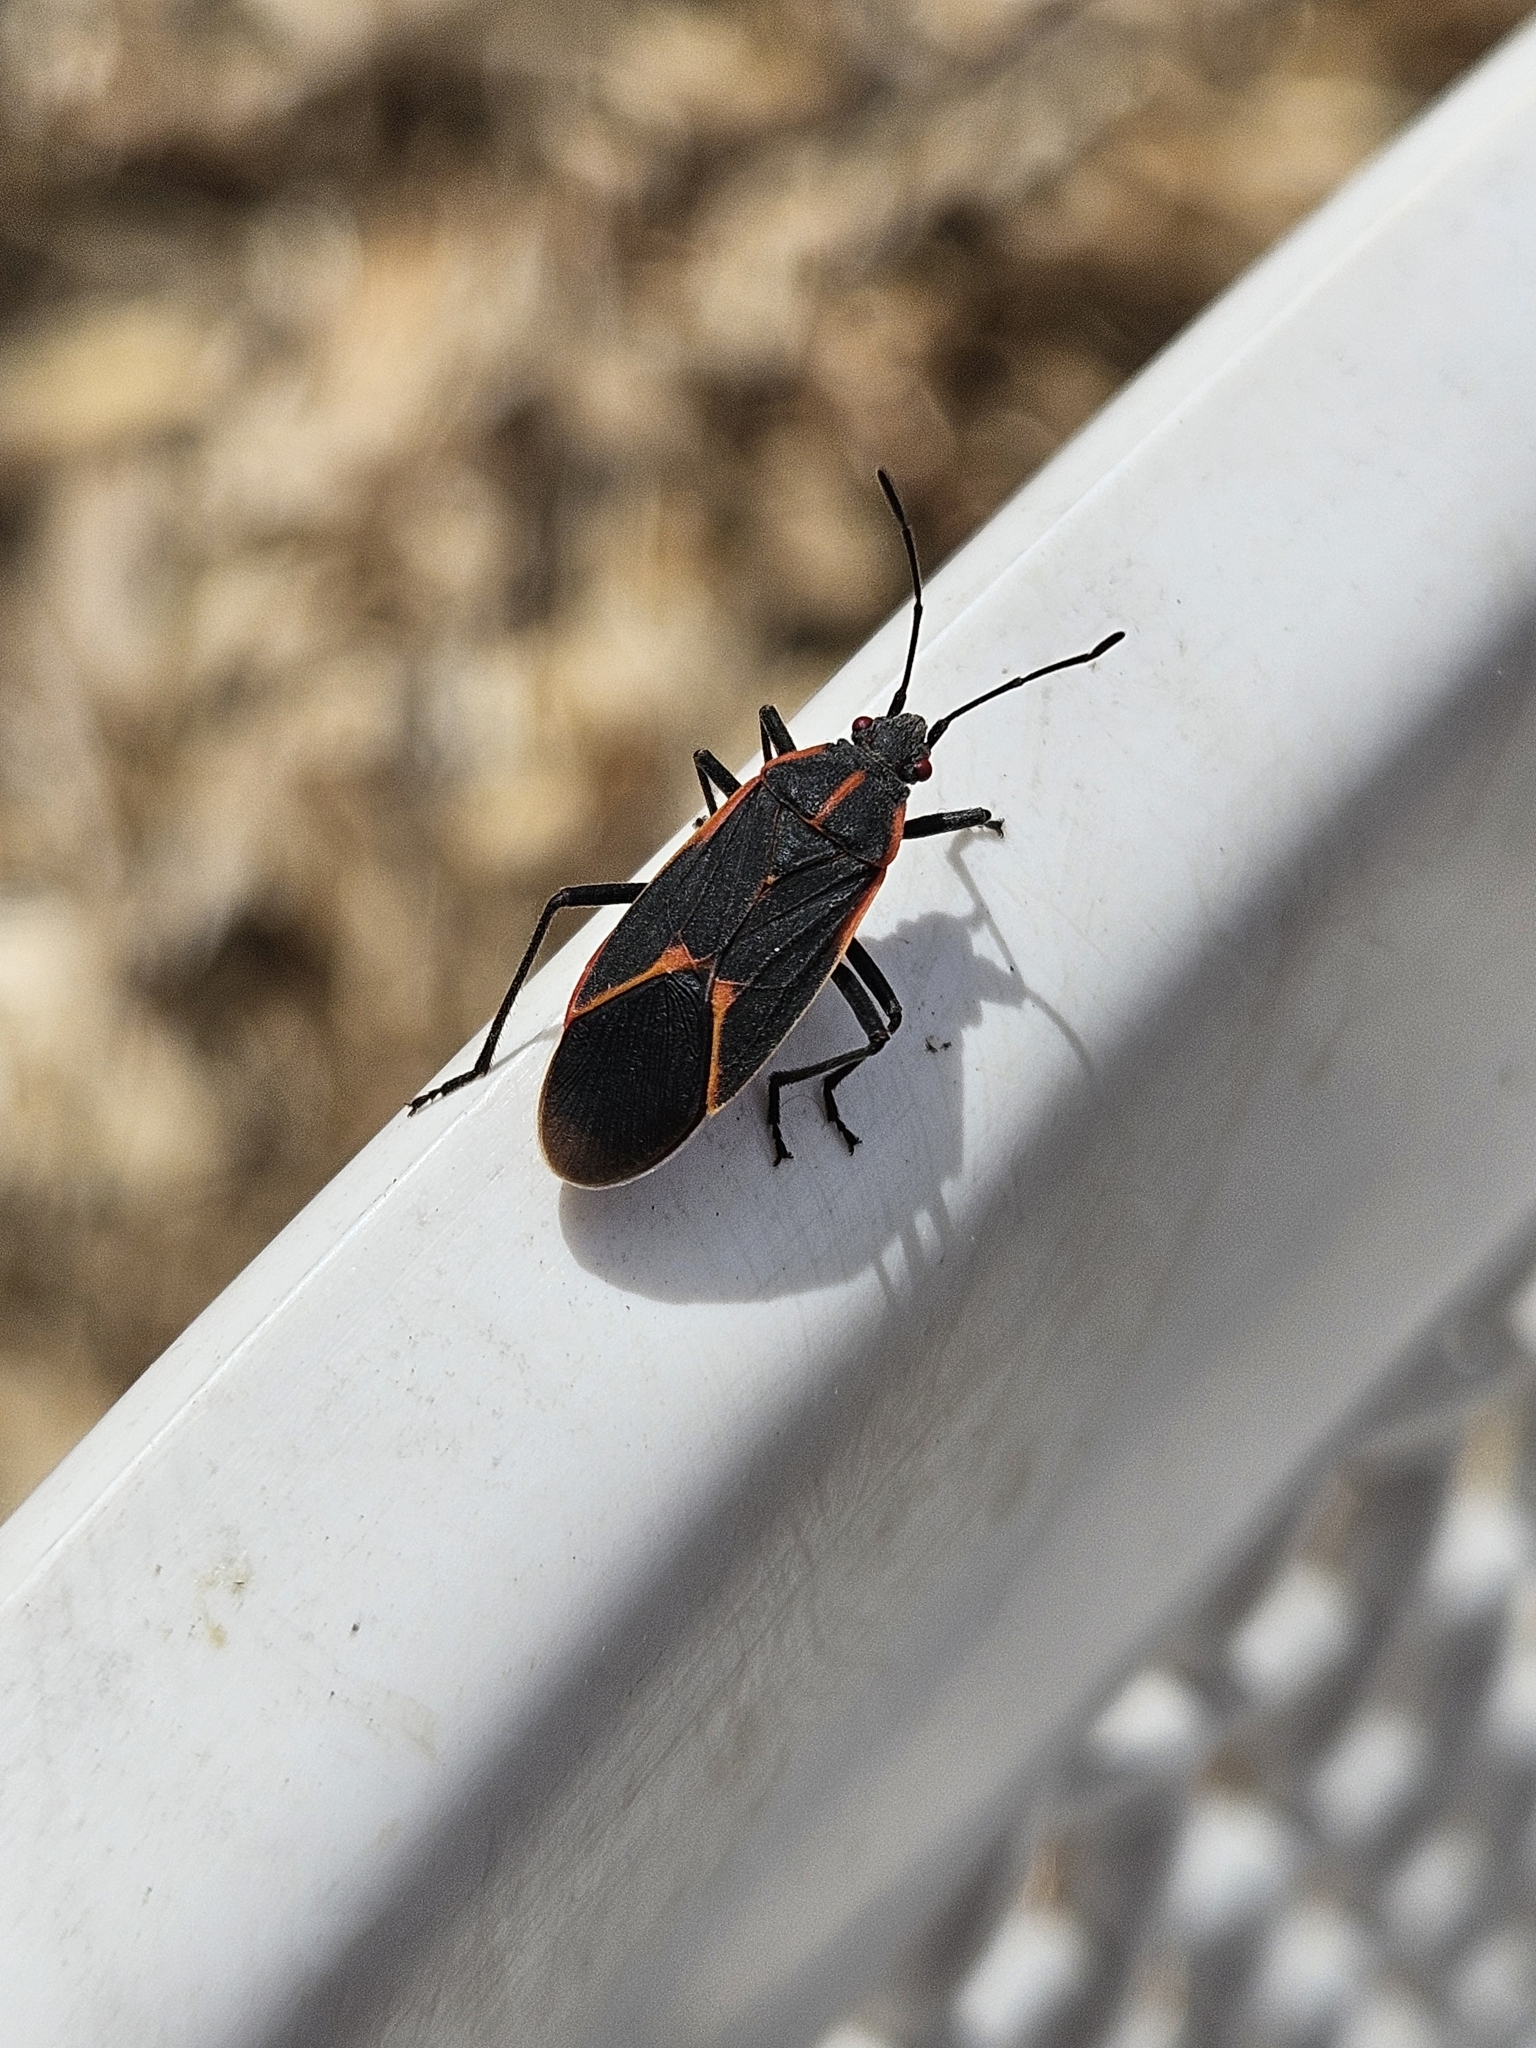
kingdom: Animalia
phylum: Arthropoda
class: Insecta
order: Hemiptera
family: Rhopalidae
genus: Boisea
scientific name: Boisea trivittata
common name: Boxelder bug
